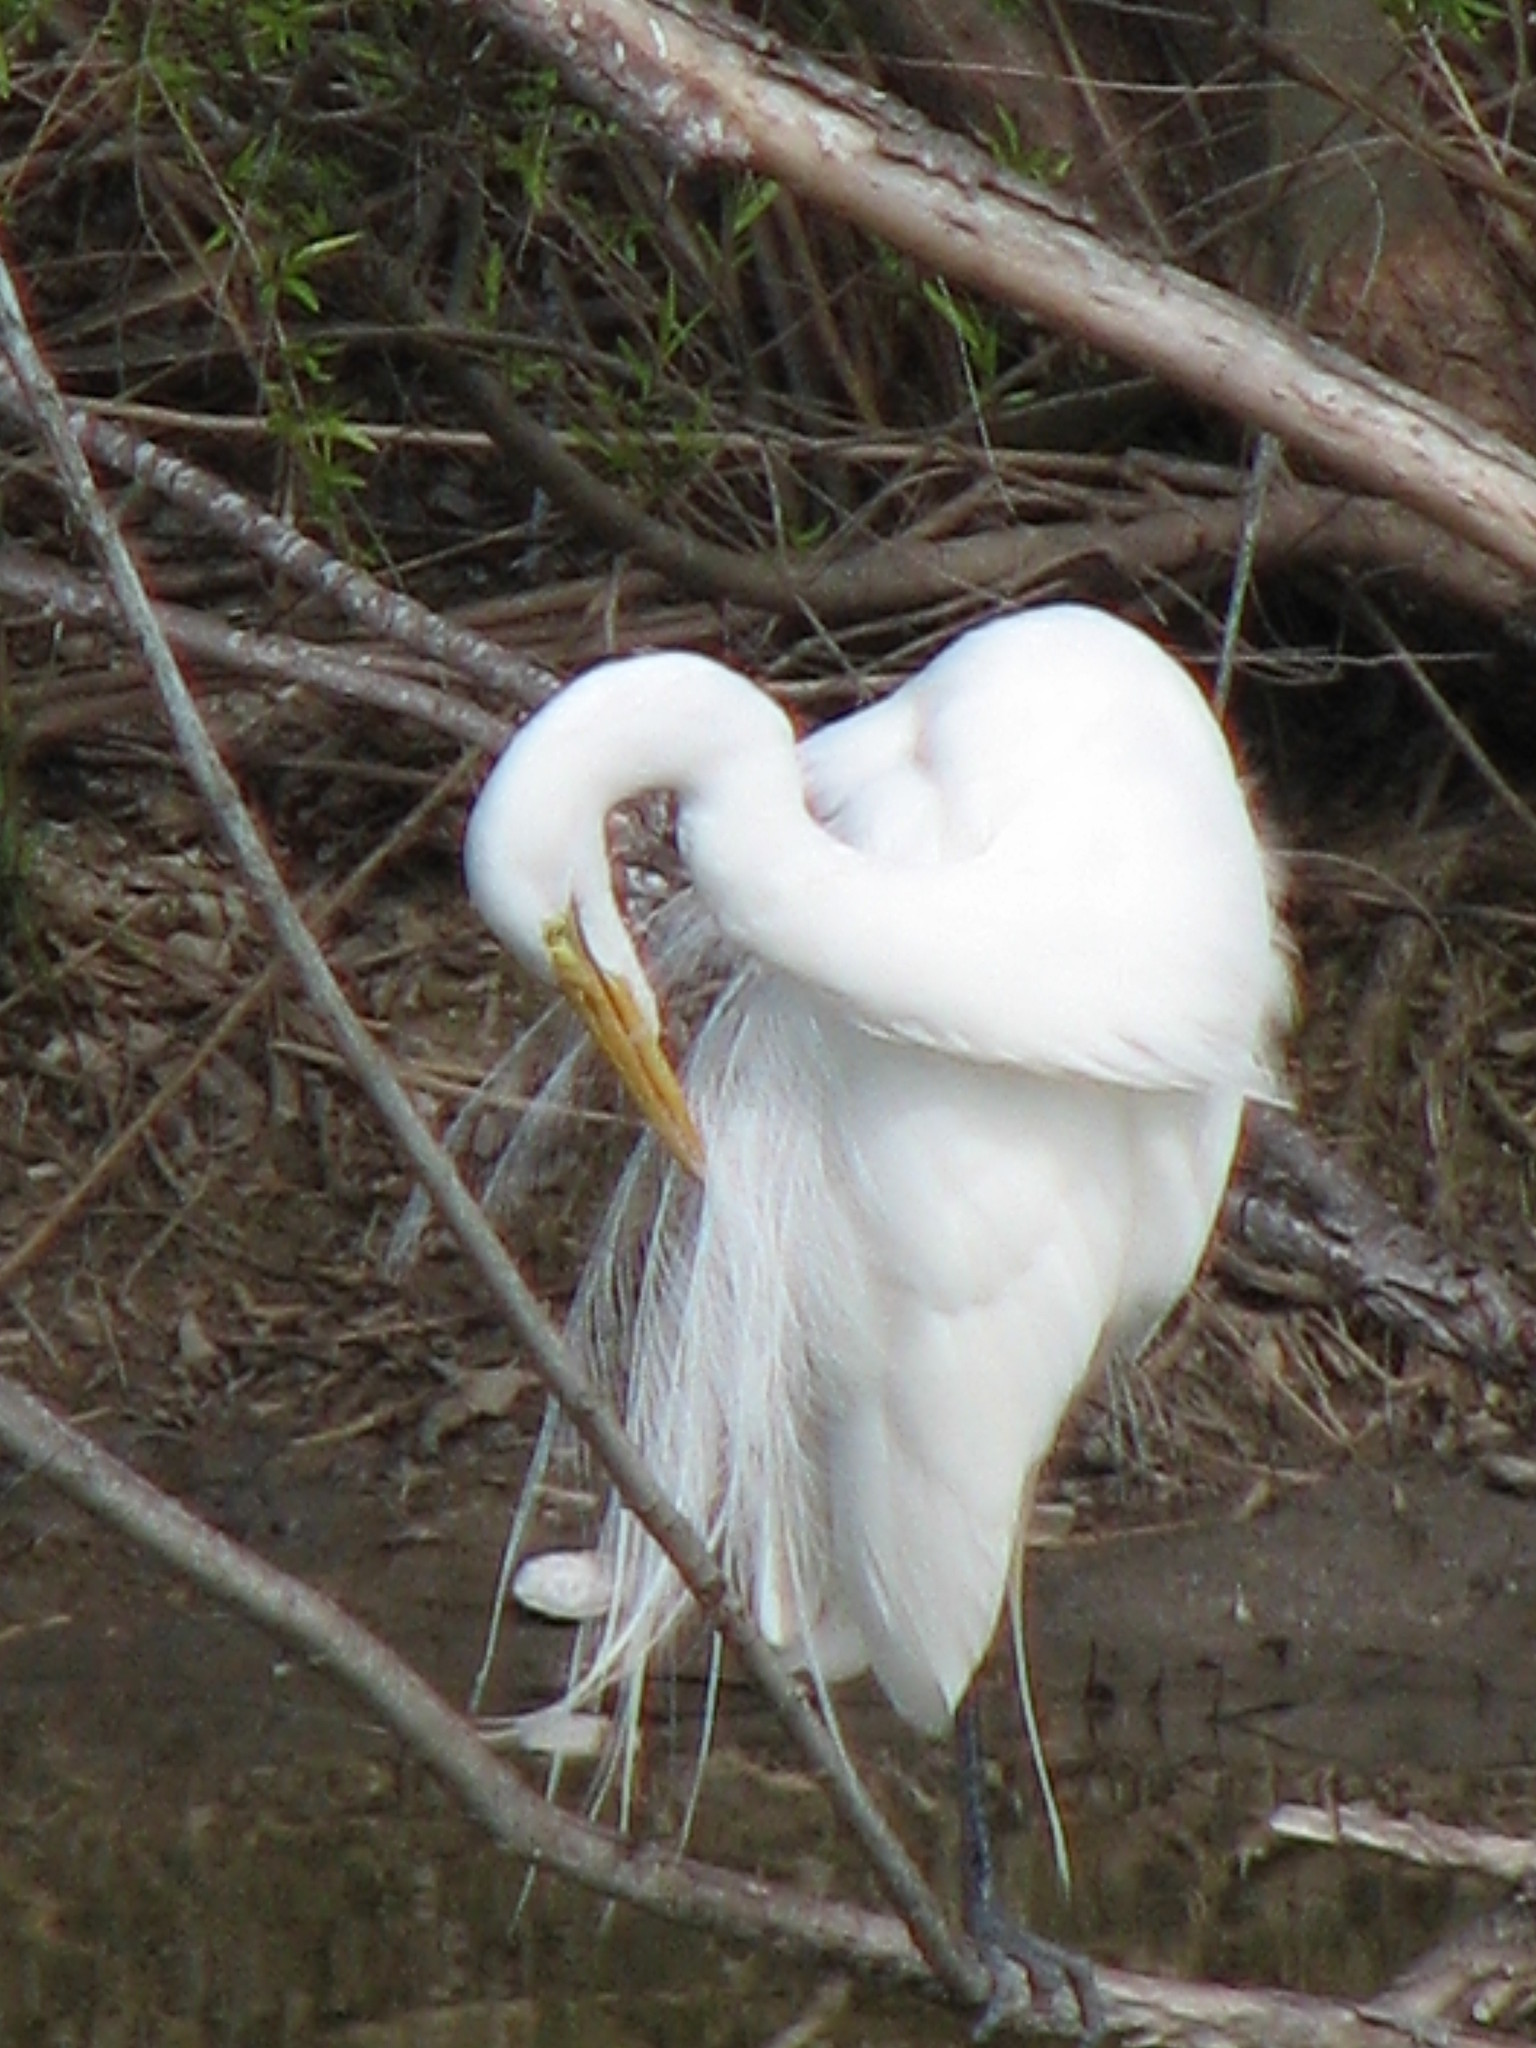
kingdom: Animalia
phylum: Chordata
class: Aves
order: Pelecaniformes
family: Ardeidae
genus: Ardea
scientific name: Ardea alba
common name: Great egret
